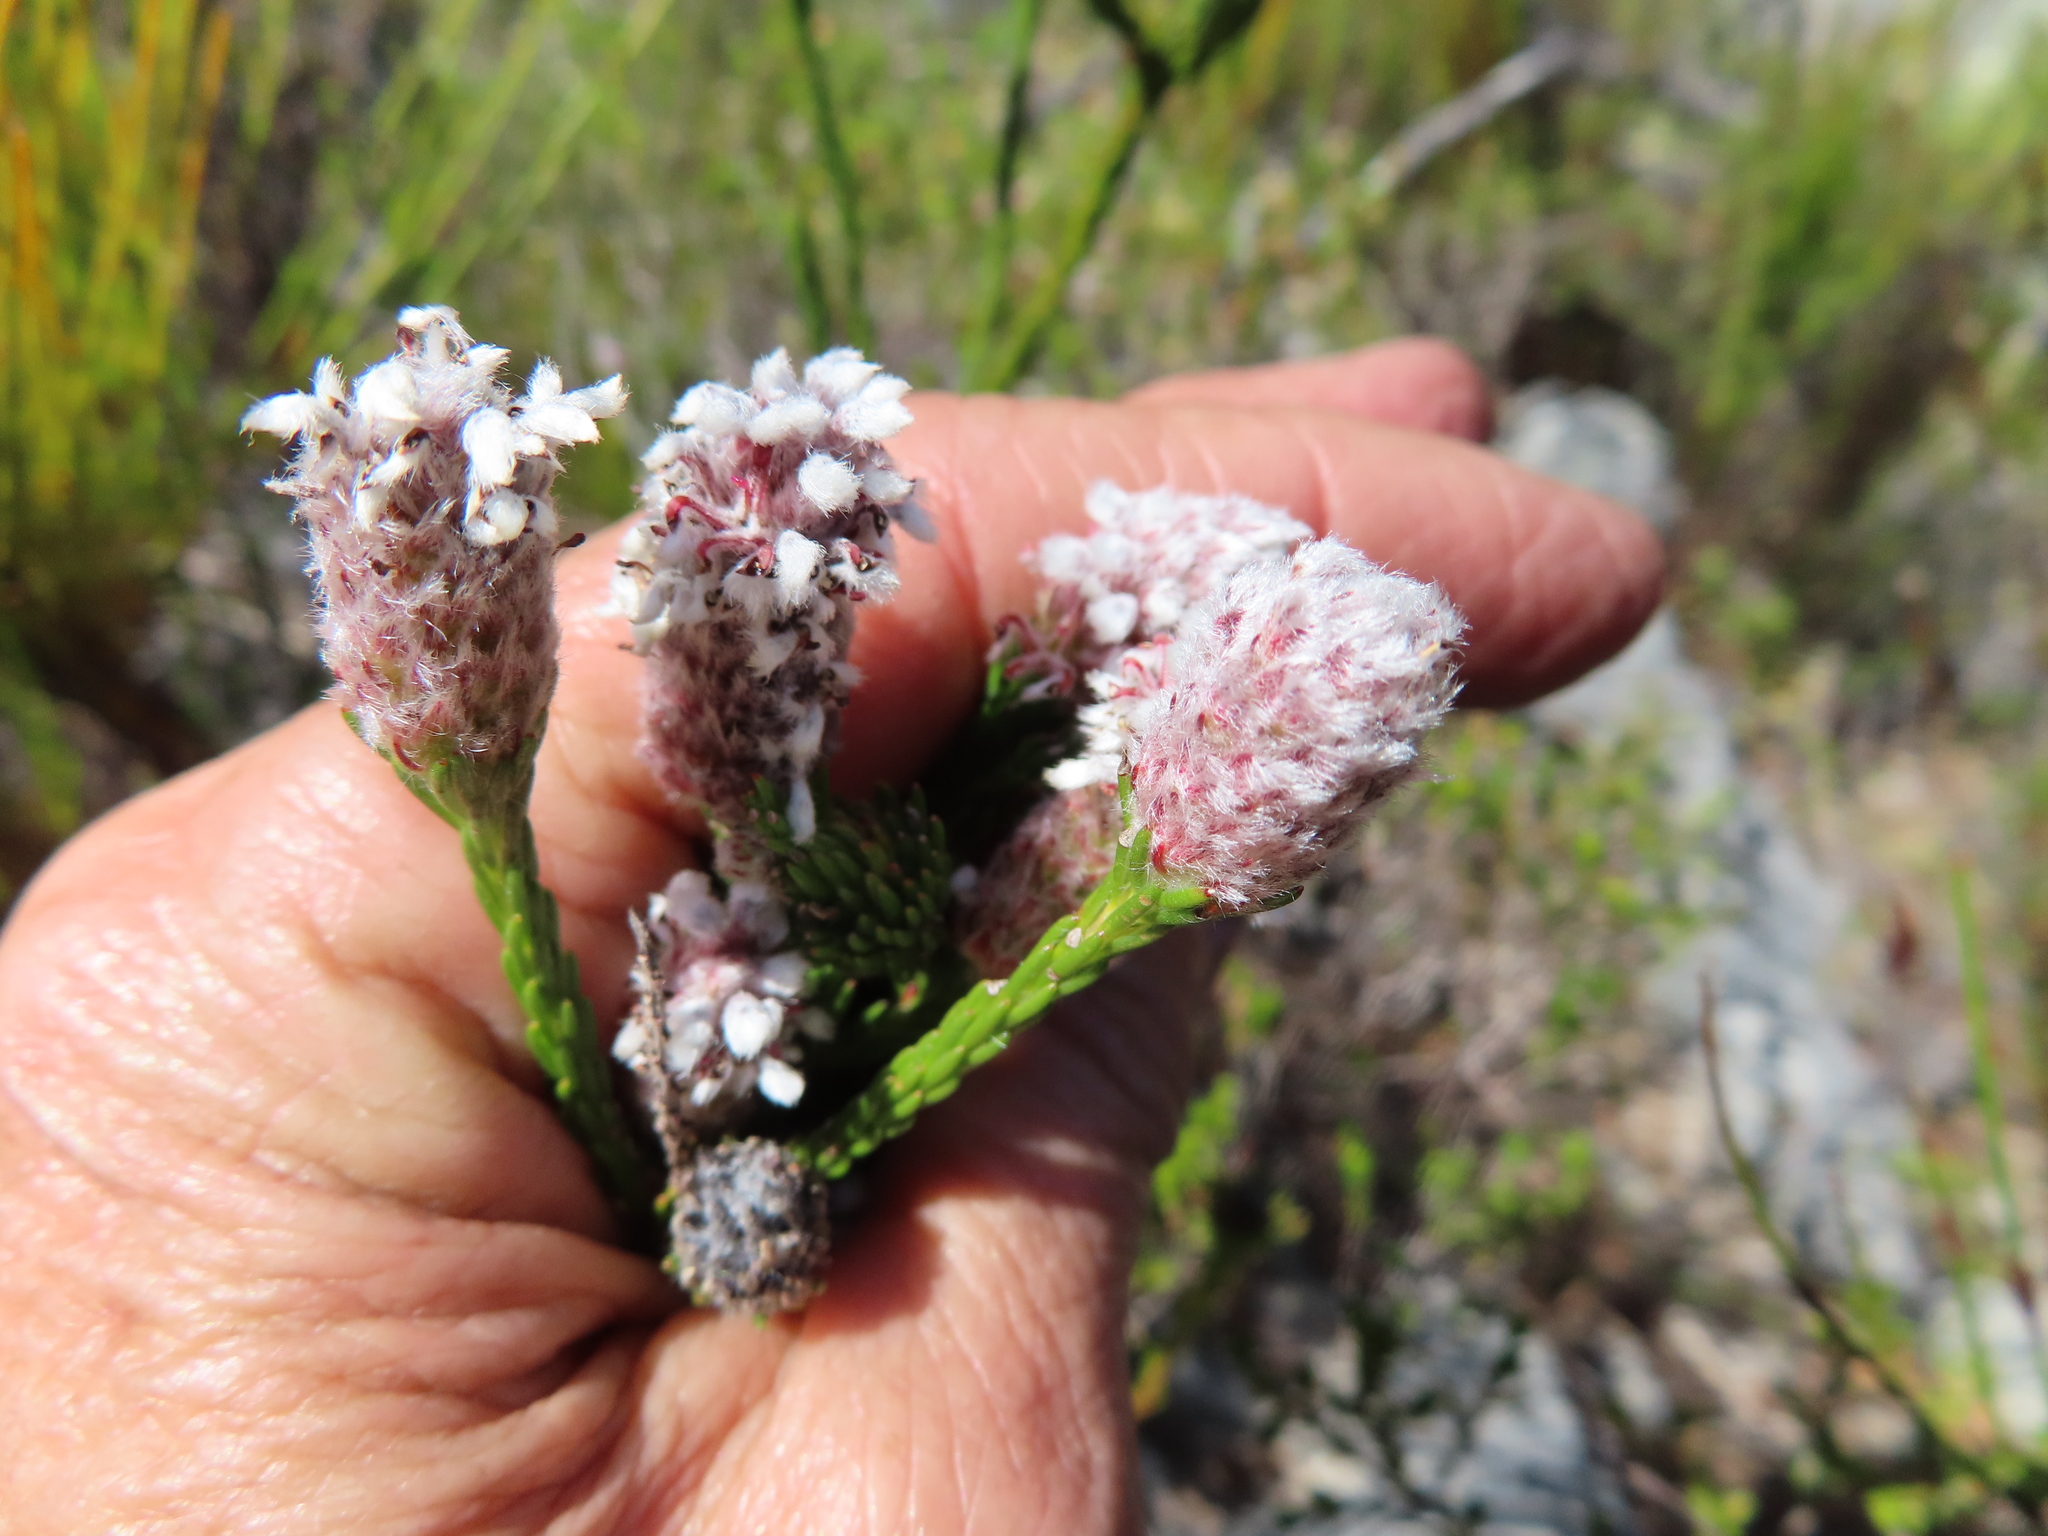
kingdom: Plantae
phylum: Tracheophyta
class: Magnoliopsida
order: Proteales
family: Proteaceae
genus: Spatalla
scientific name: Spatalla ericoides
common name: Erica-leaf spoon
